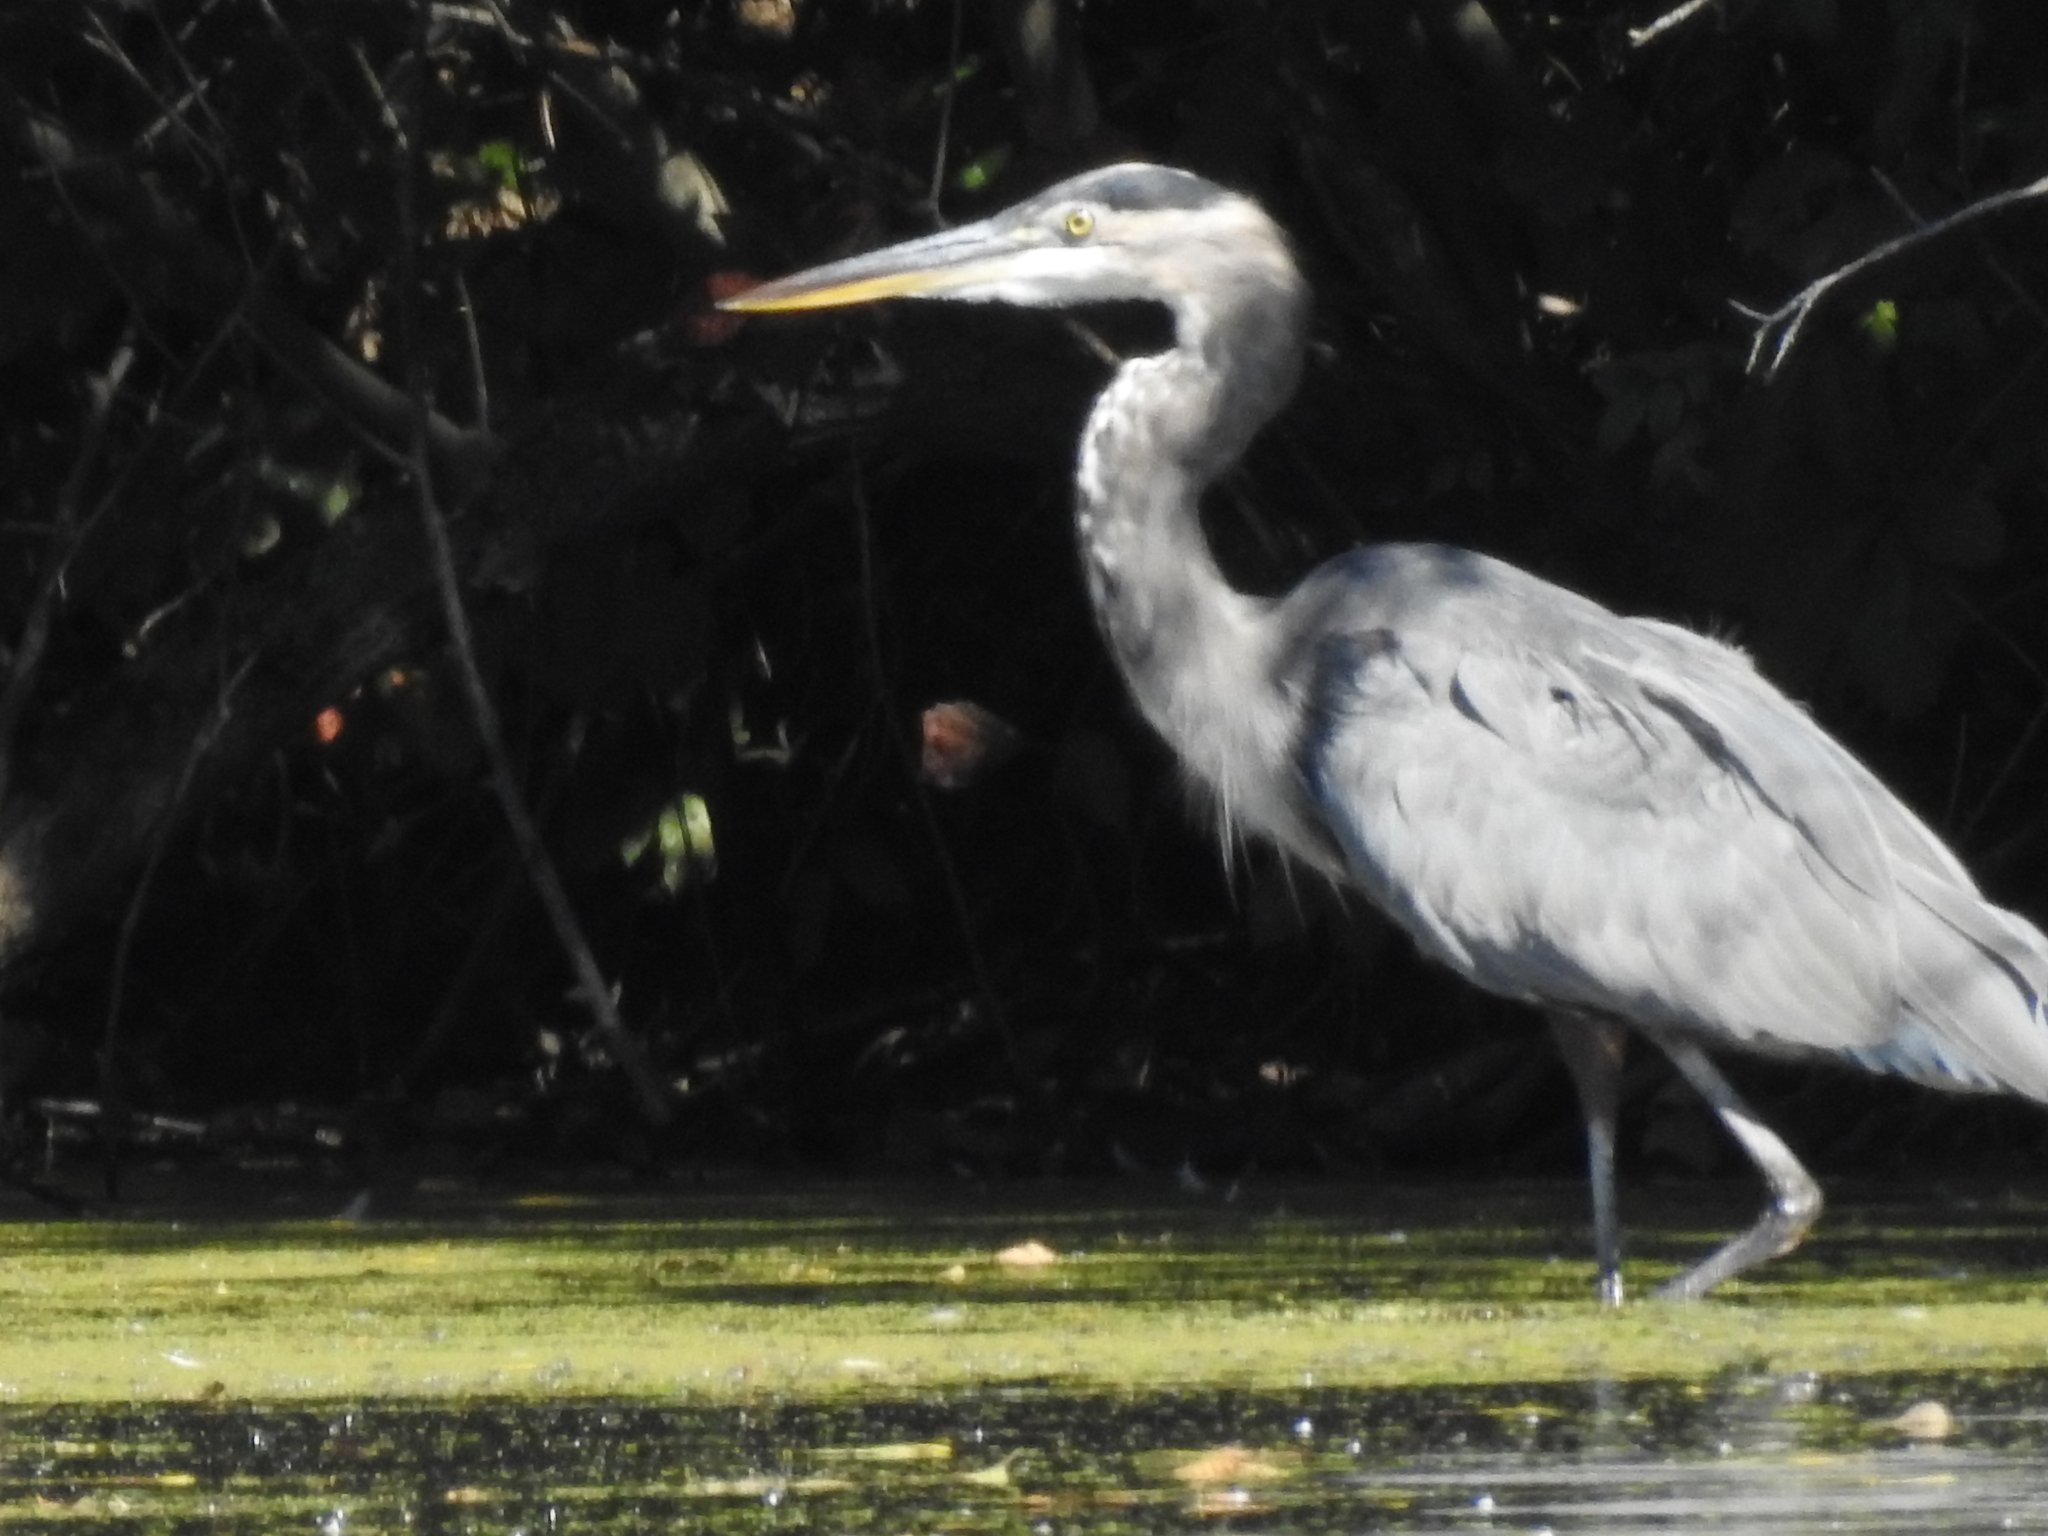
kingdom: Animalia
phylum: Chordata
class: Aves
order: Pelecaniformes
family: Ardeidae
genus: Ardea
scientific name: Ardea herodias
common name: Great blue heron
